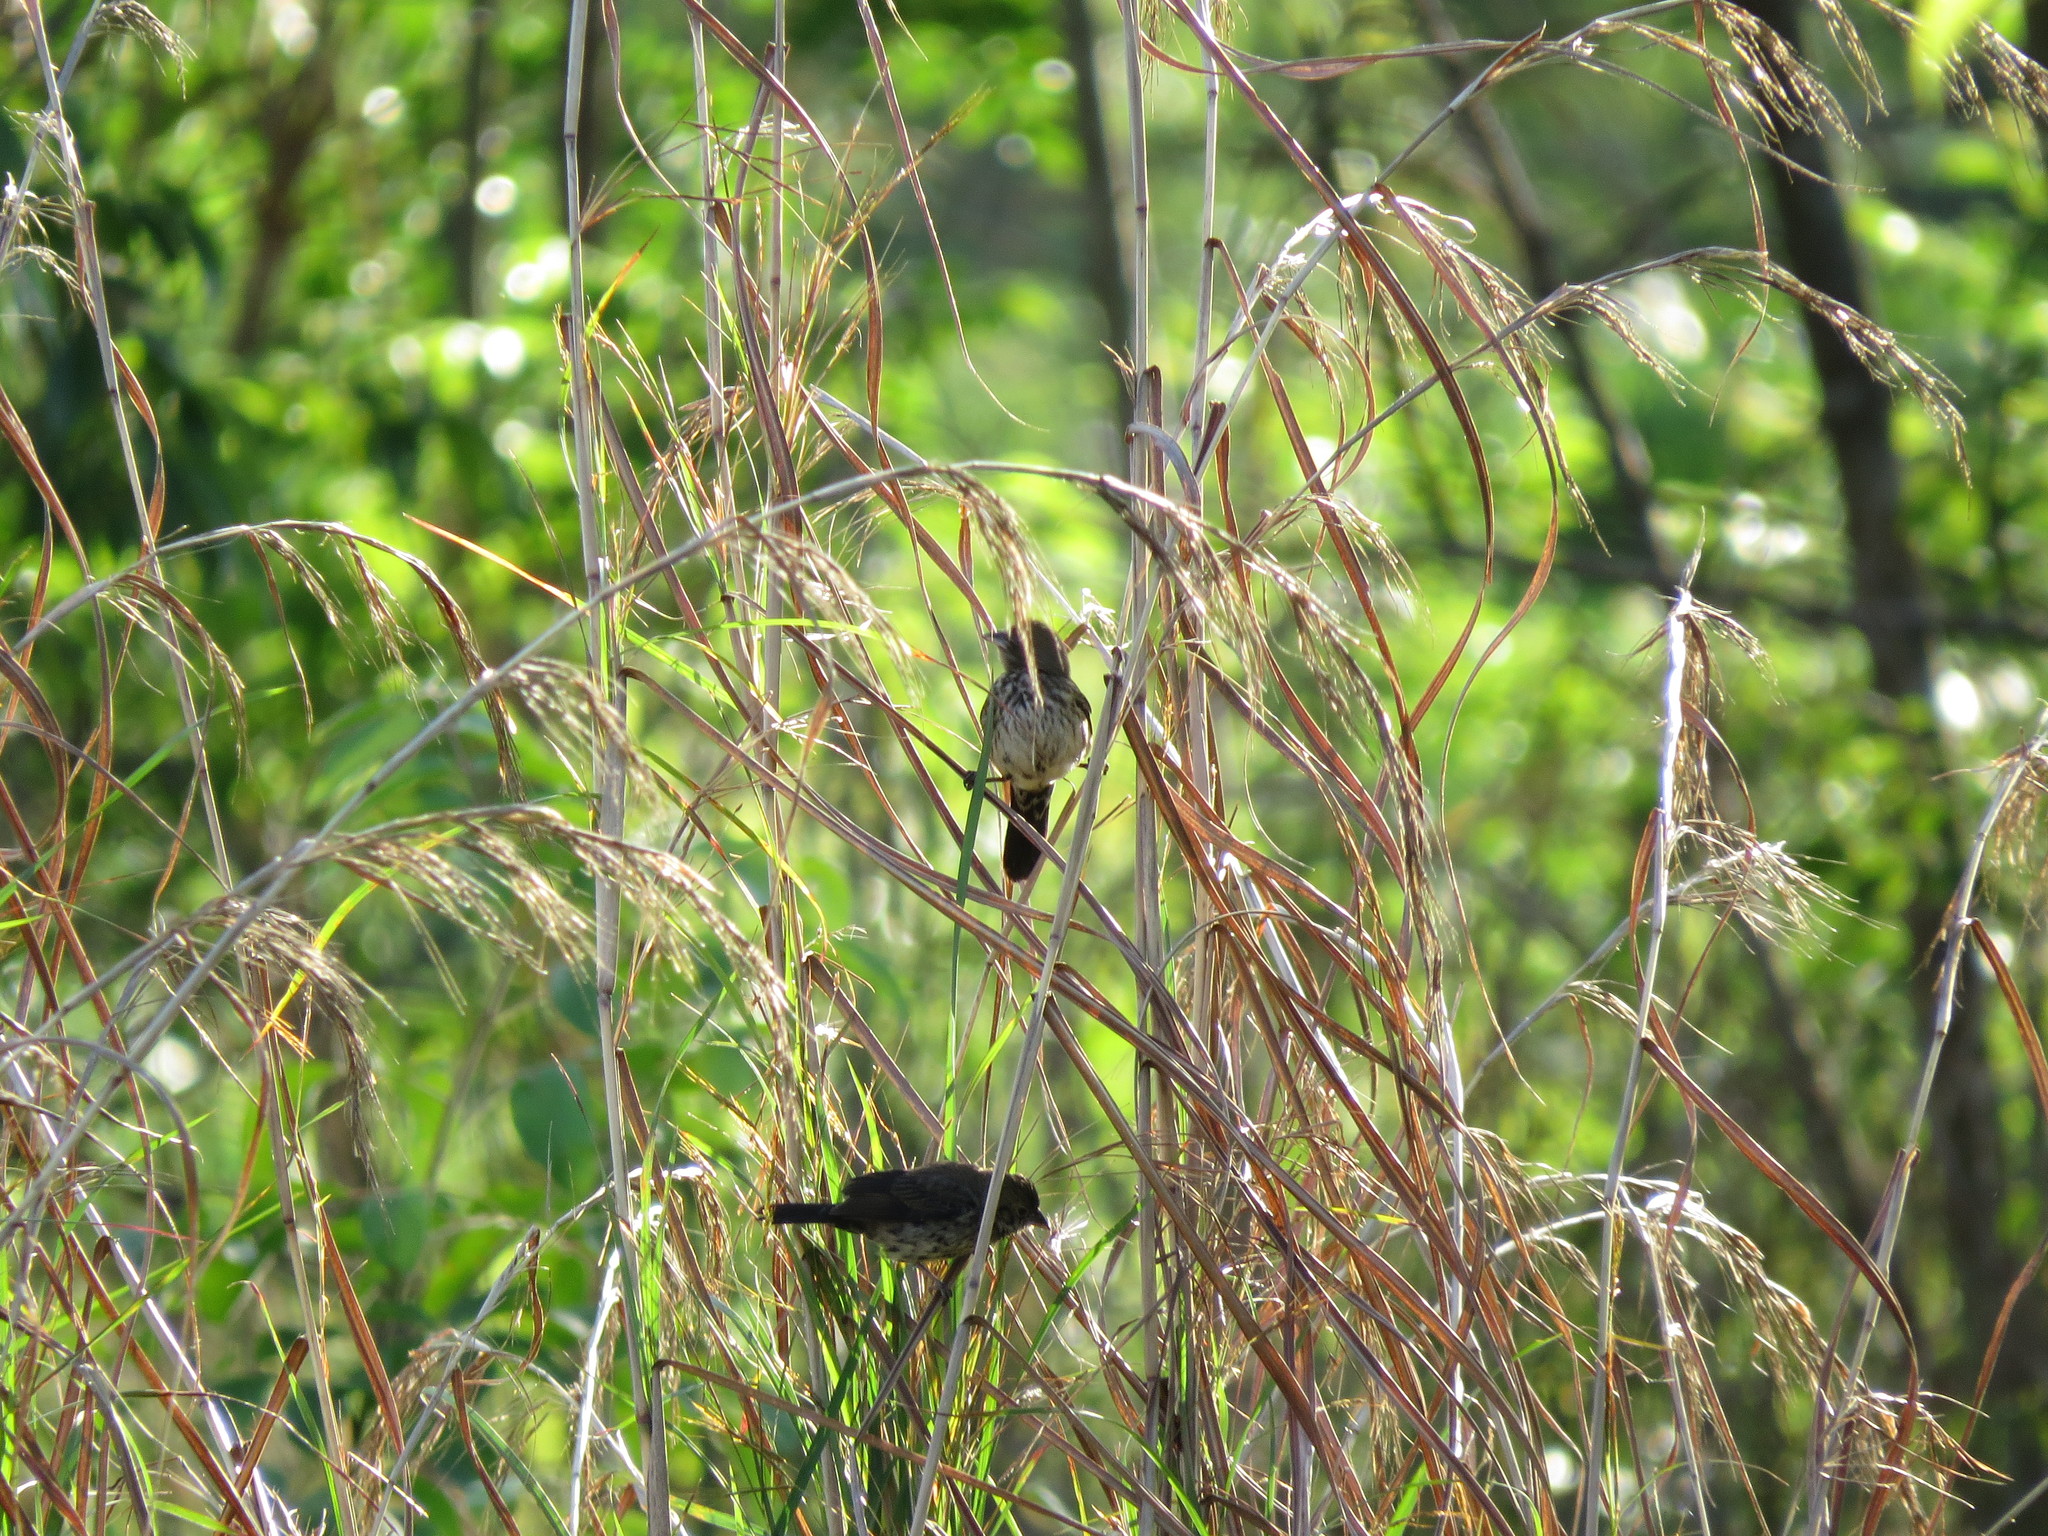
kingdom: Animalia
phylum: Chordata
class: Aves
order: Passeriformes
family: Thraupidae
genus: Volatinia
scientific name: Volatinia jacarina
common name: Blue-black grassquit
